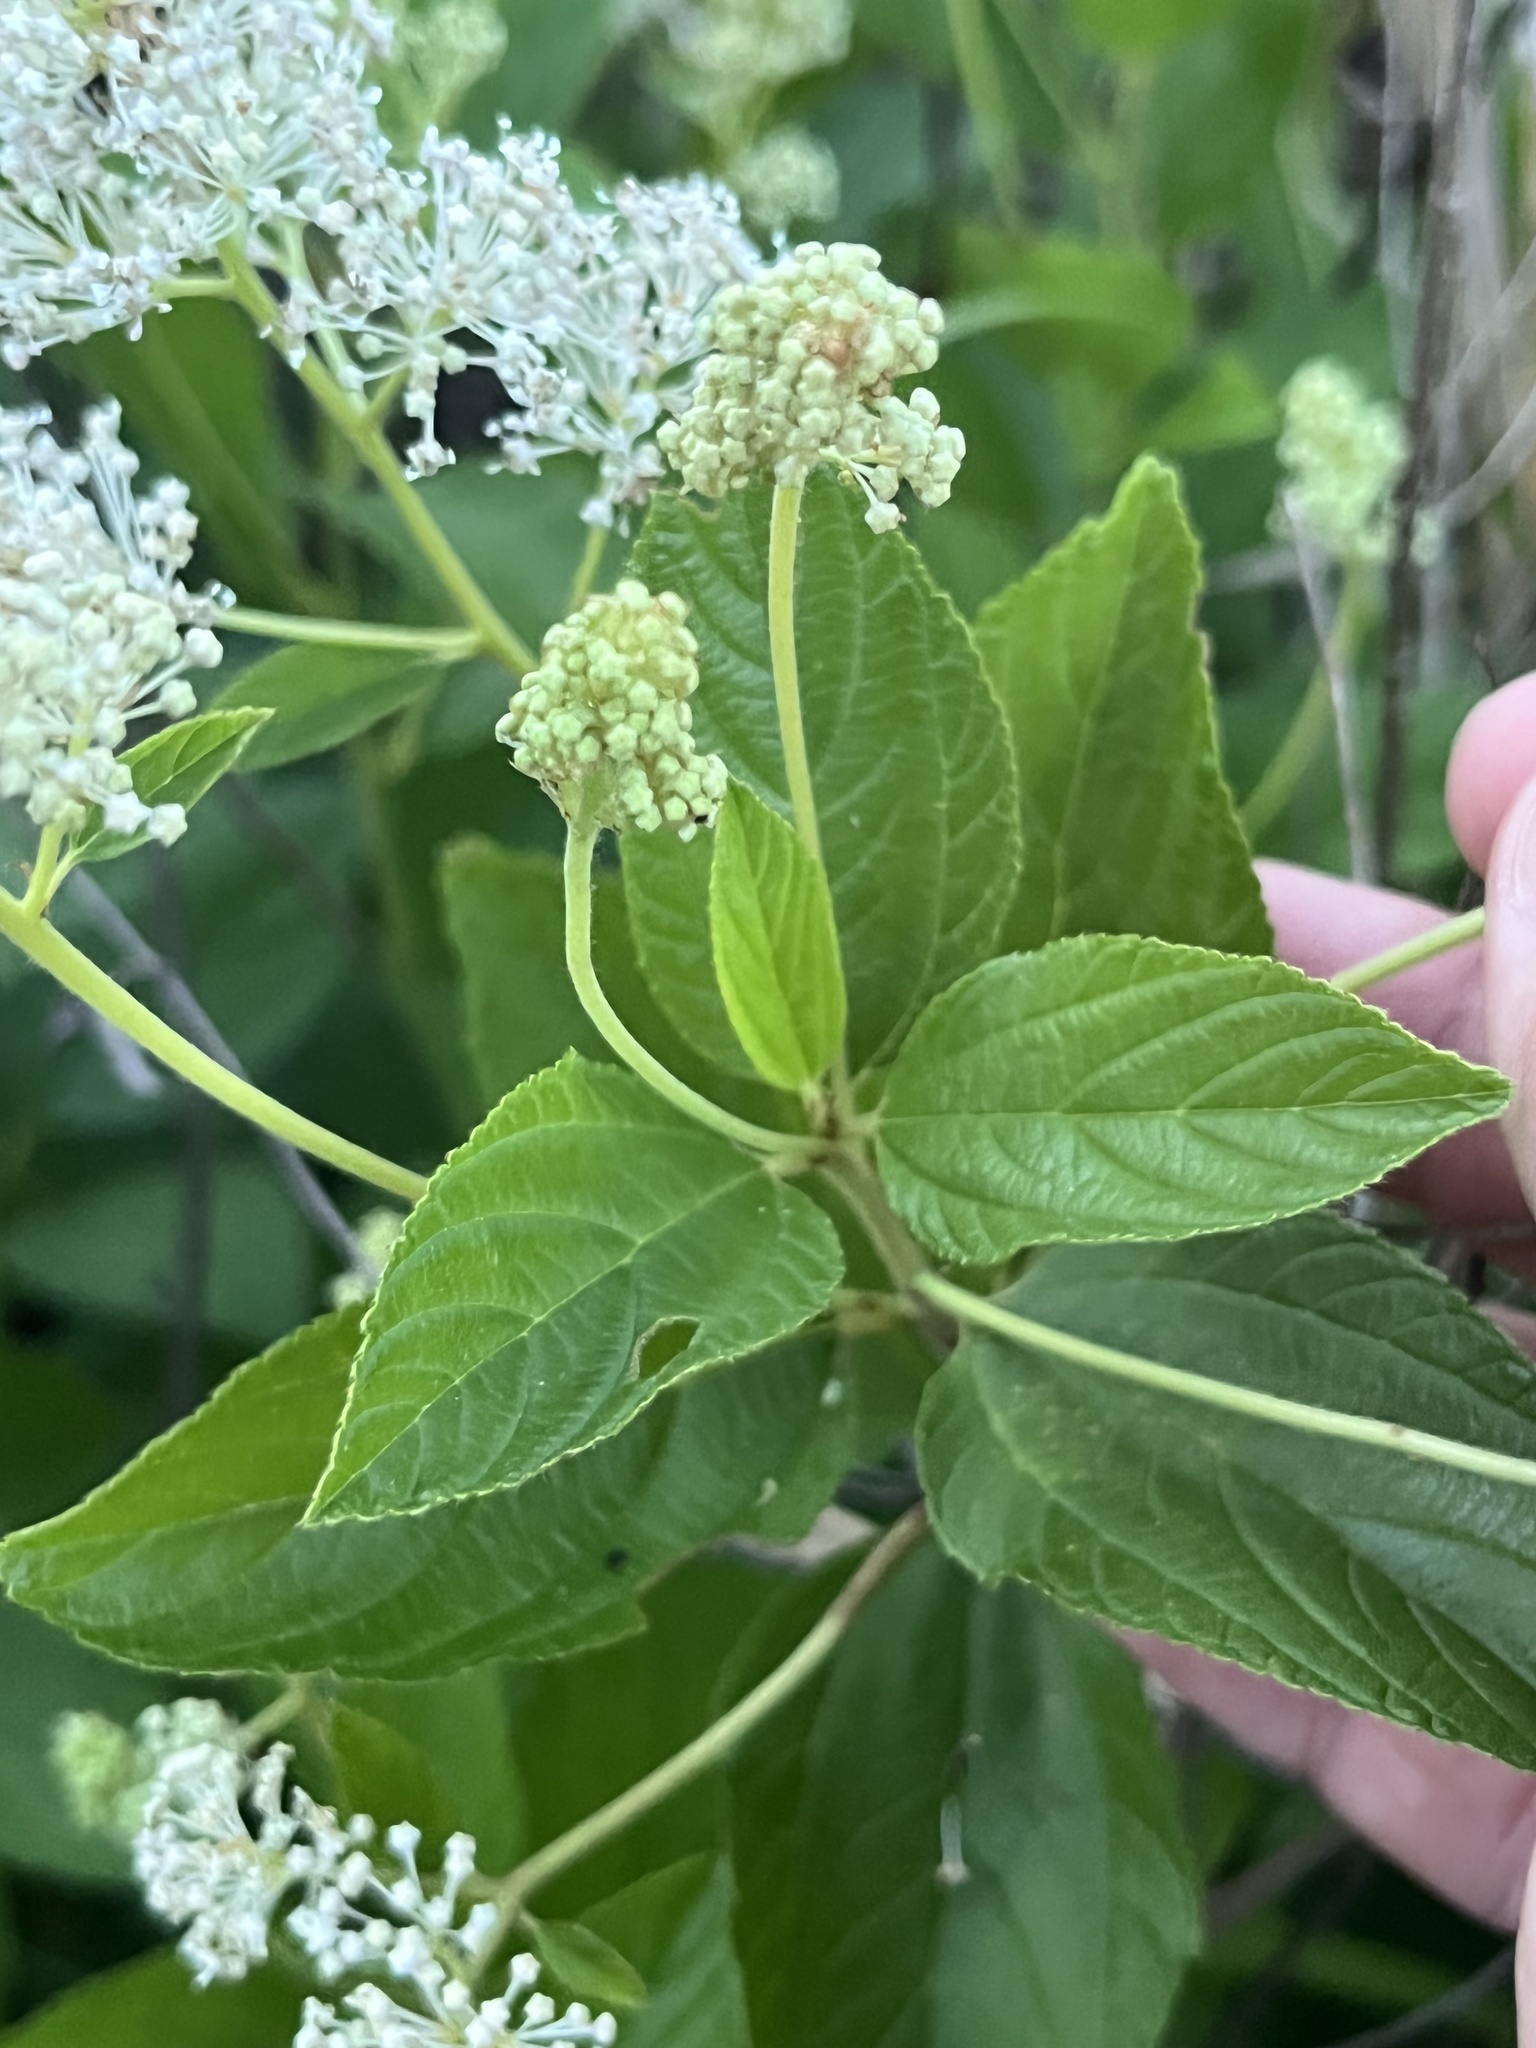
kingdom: Plantae
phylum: Tracheophyta
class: Magnoliopsida
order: Rosales
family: Rhamnaceae
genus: Ceanothus
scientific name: Ceanothus americanus
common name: Redroot
